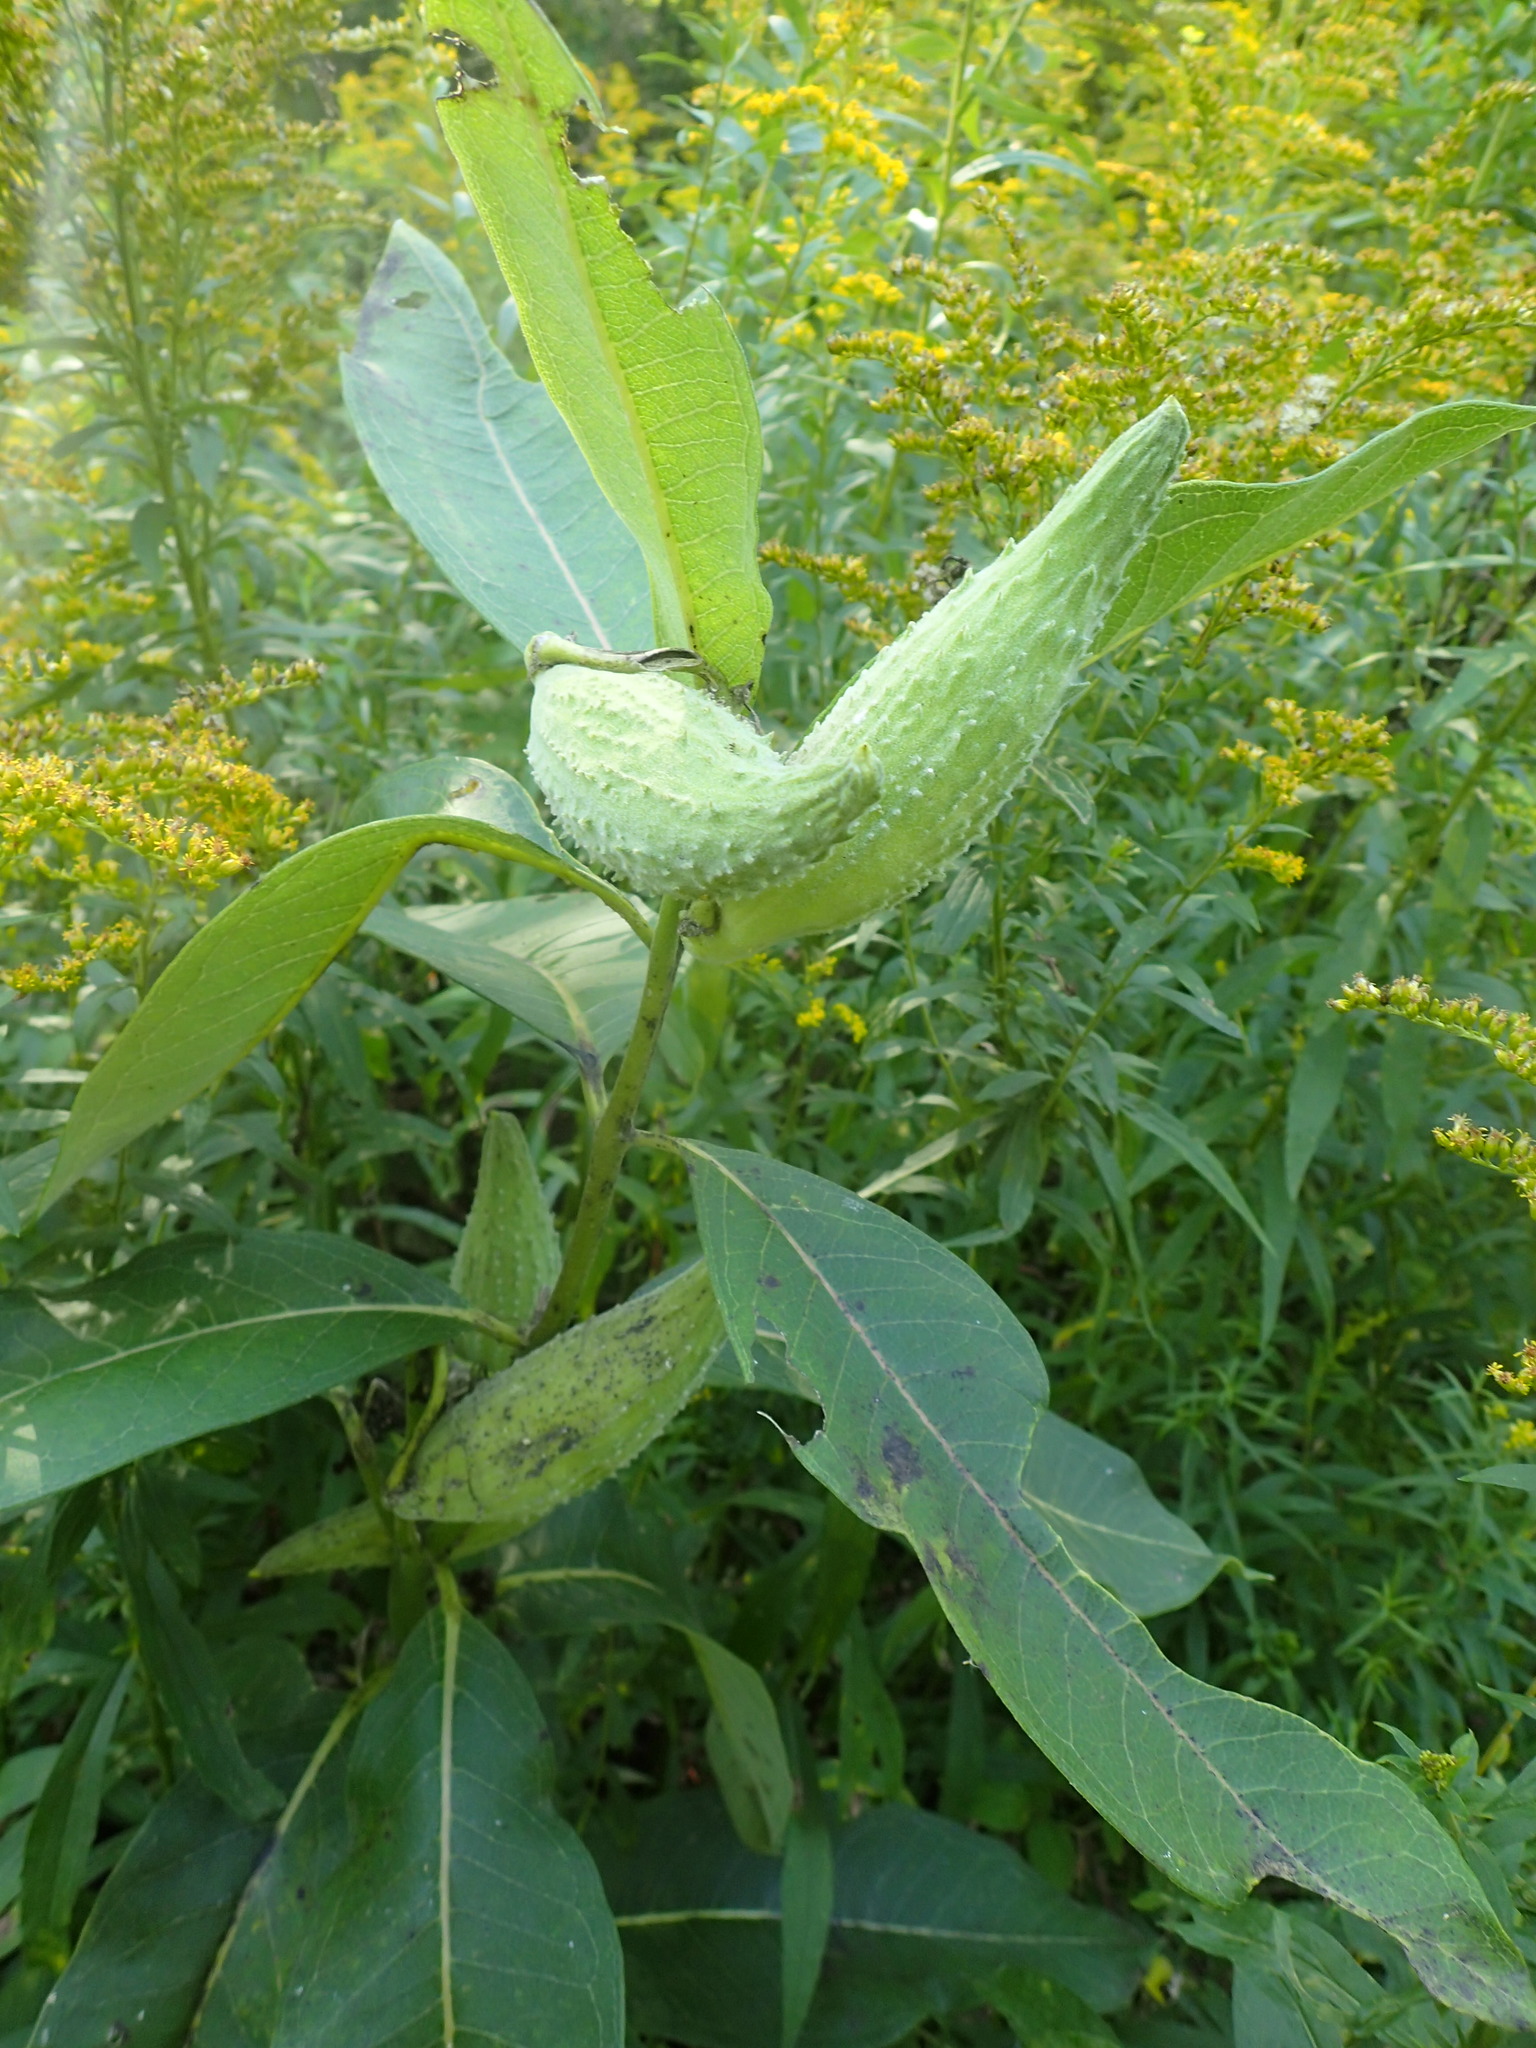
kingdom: Plantae
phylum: Tracheophyta
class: Magnoliopsida
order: Gentianales
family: Apocynaceae
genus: Asclepias
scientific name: Asclepias syriaca
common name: Common milkweed
